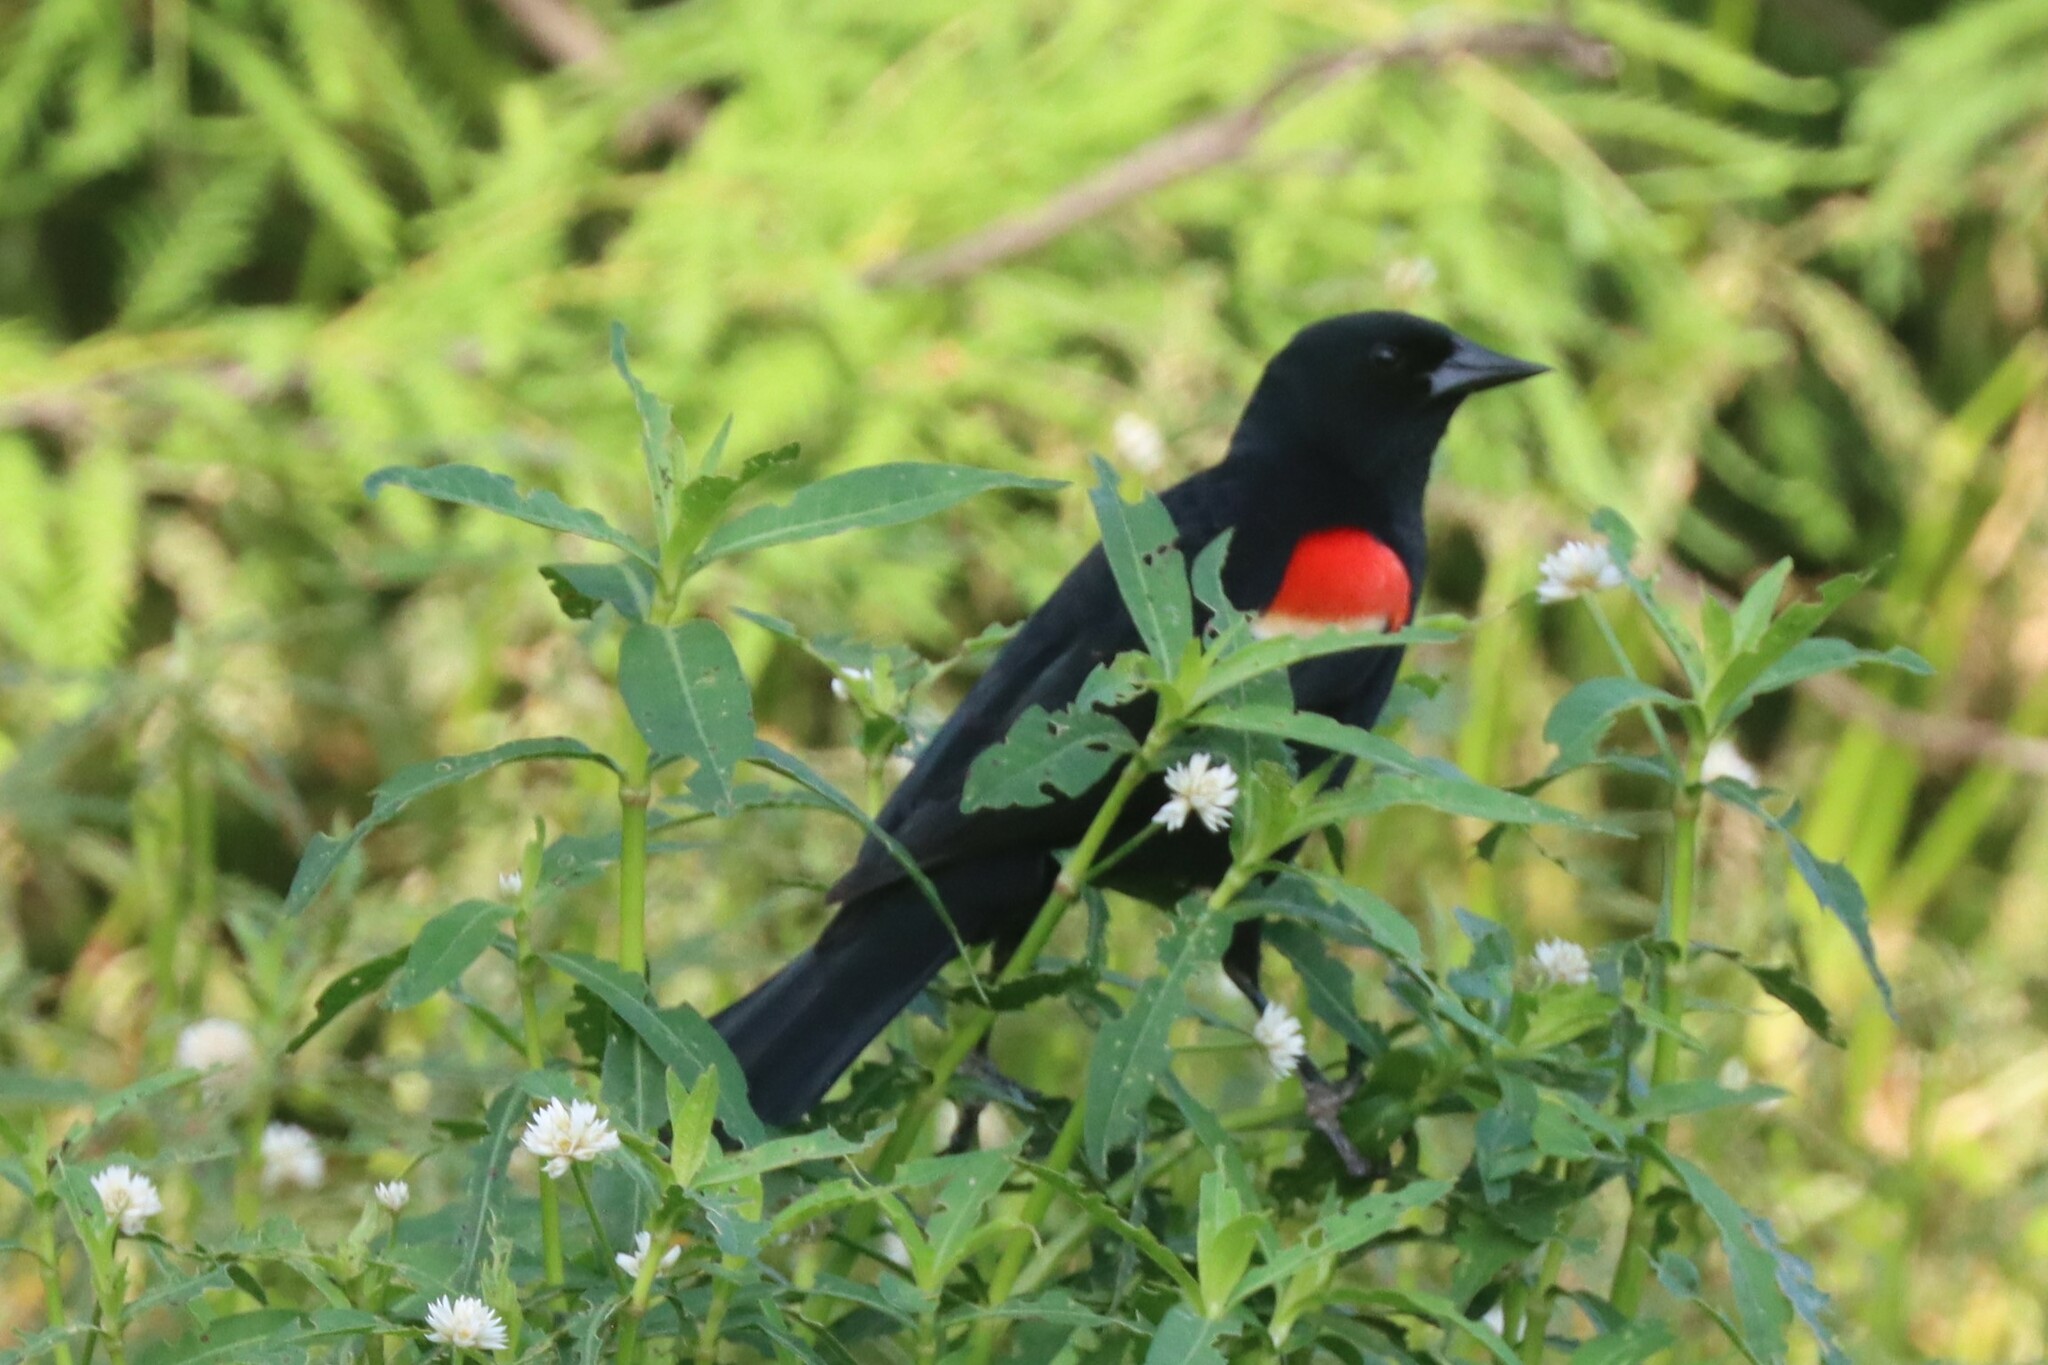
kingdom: Animalia
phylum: Chordata
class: Aves
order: Passeriformes
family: Icteridae
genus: Agelaius
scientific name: Agelaius phoeniceus
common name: Red-winged blackbird
